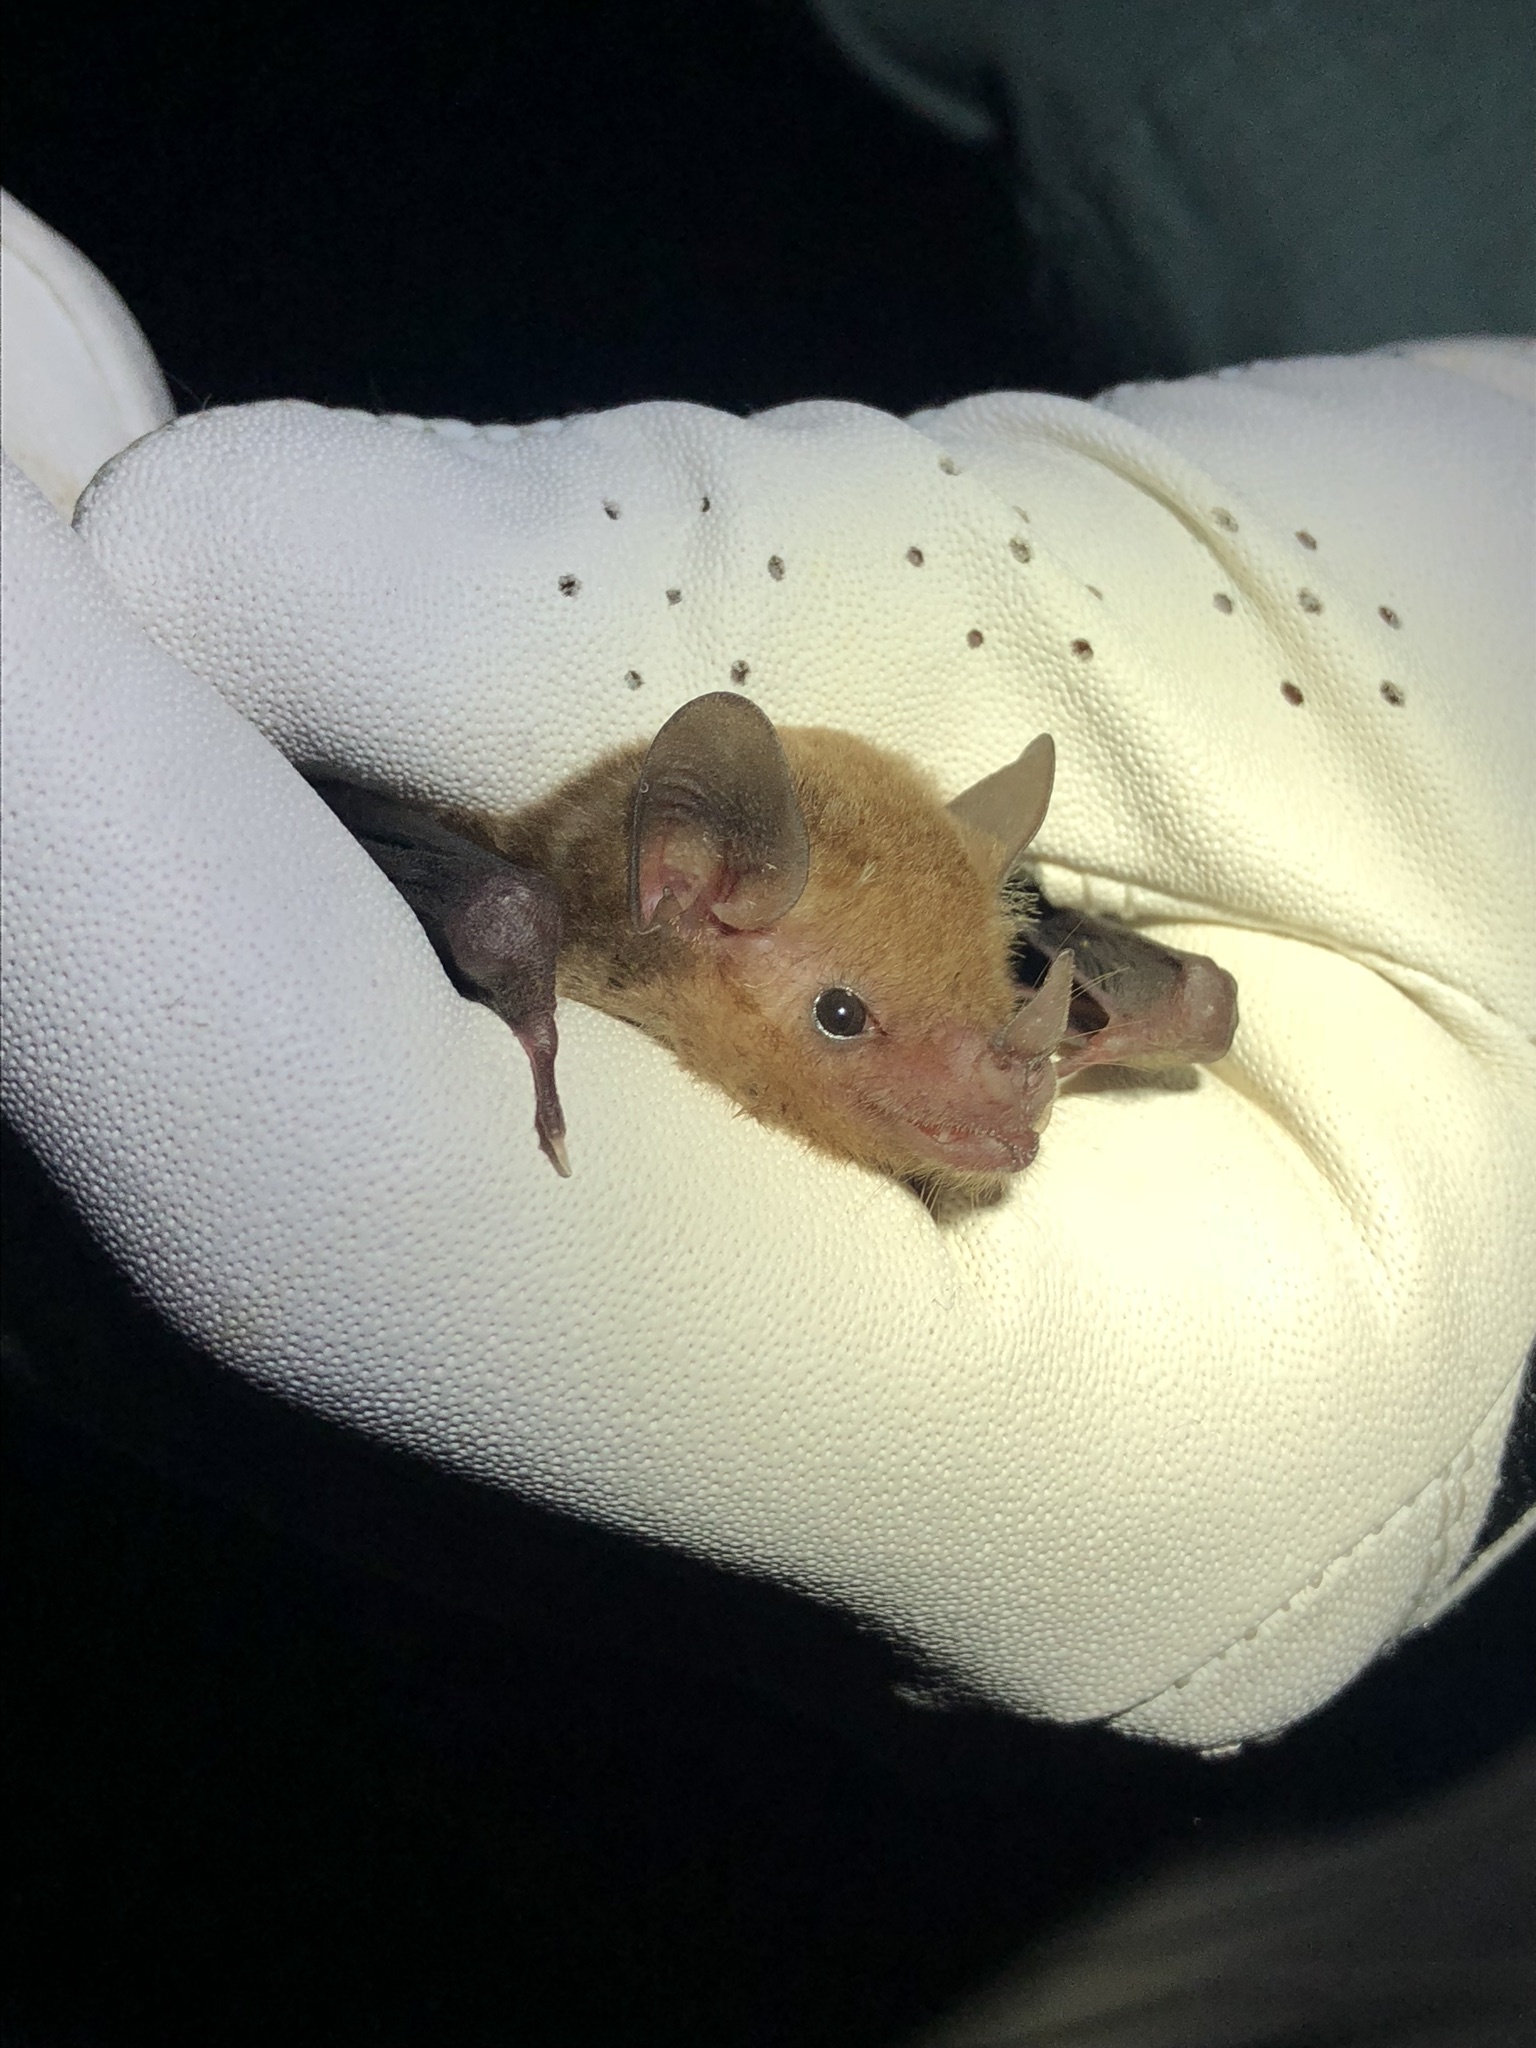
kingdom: Animalia
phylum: Chordata
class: Mammalia
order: Chiroptera
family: Phyllostomidae
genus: Glossophaga
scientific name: Glossophaga soricina
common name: Pallas's long-tongued bat
